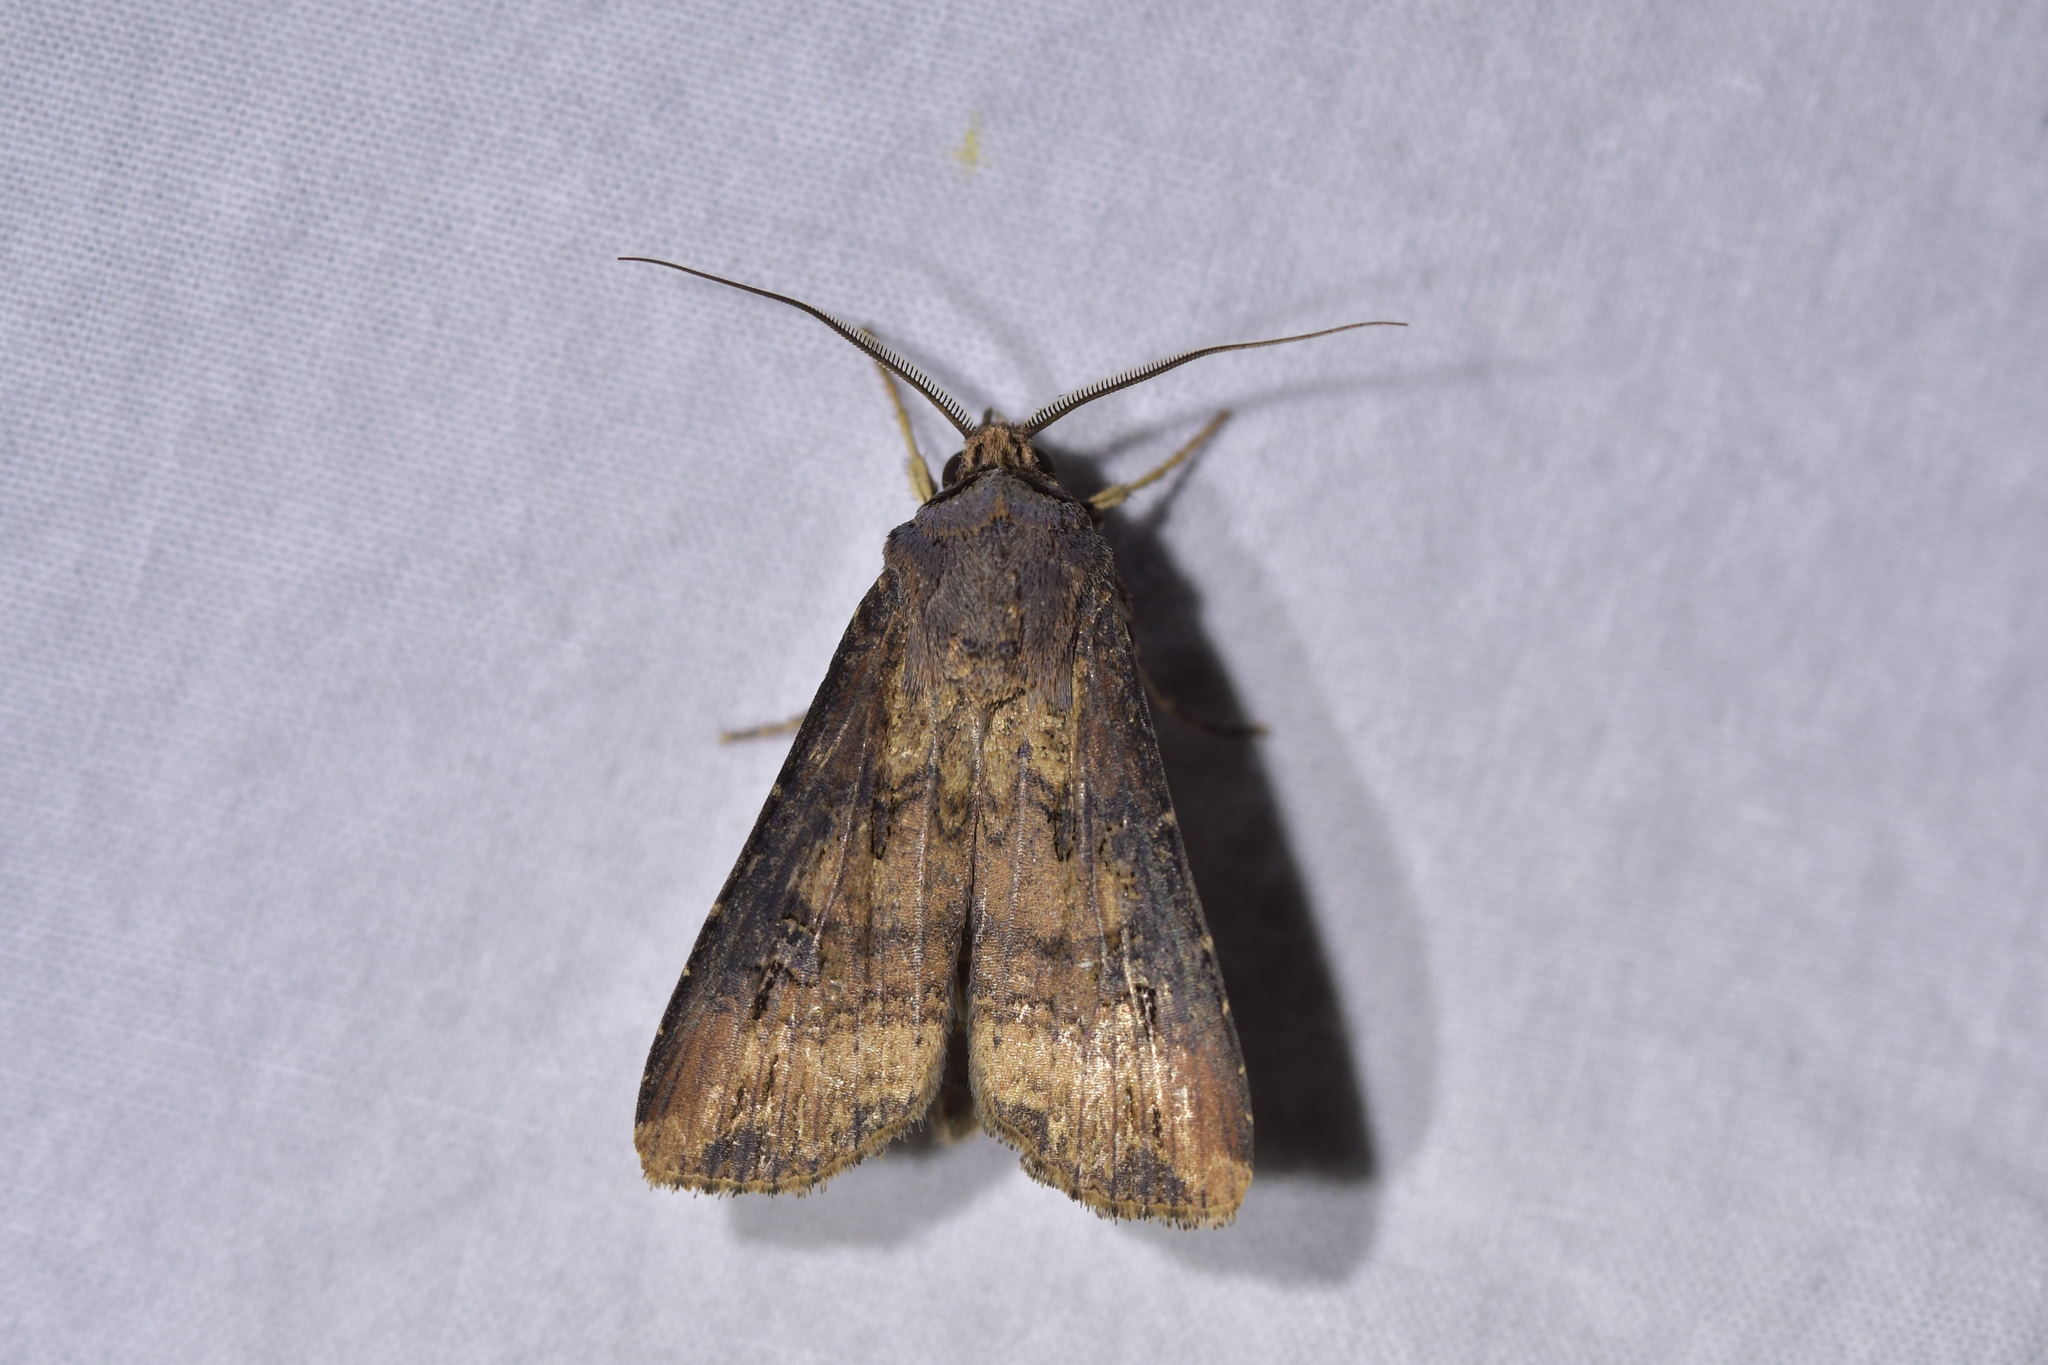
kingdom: Animalia
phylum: Arthropoda
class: Insecta
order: Lepidoptera
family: Noctuidae
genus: Agrotis
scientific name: Agrotis ipsilon
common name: Dark sword-grass
